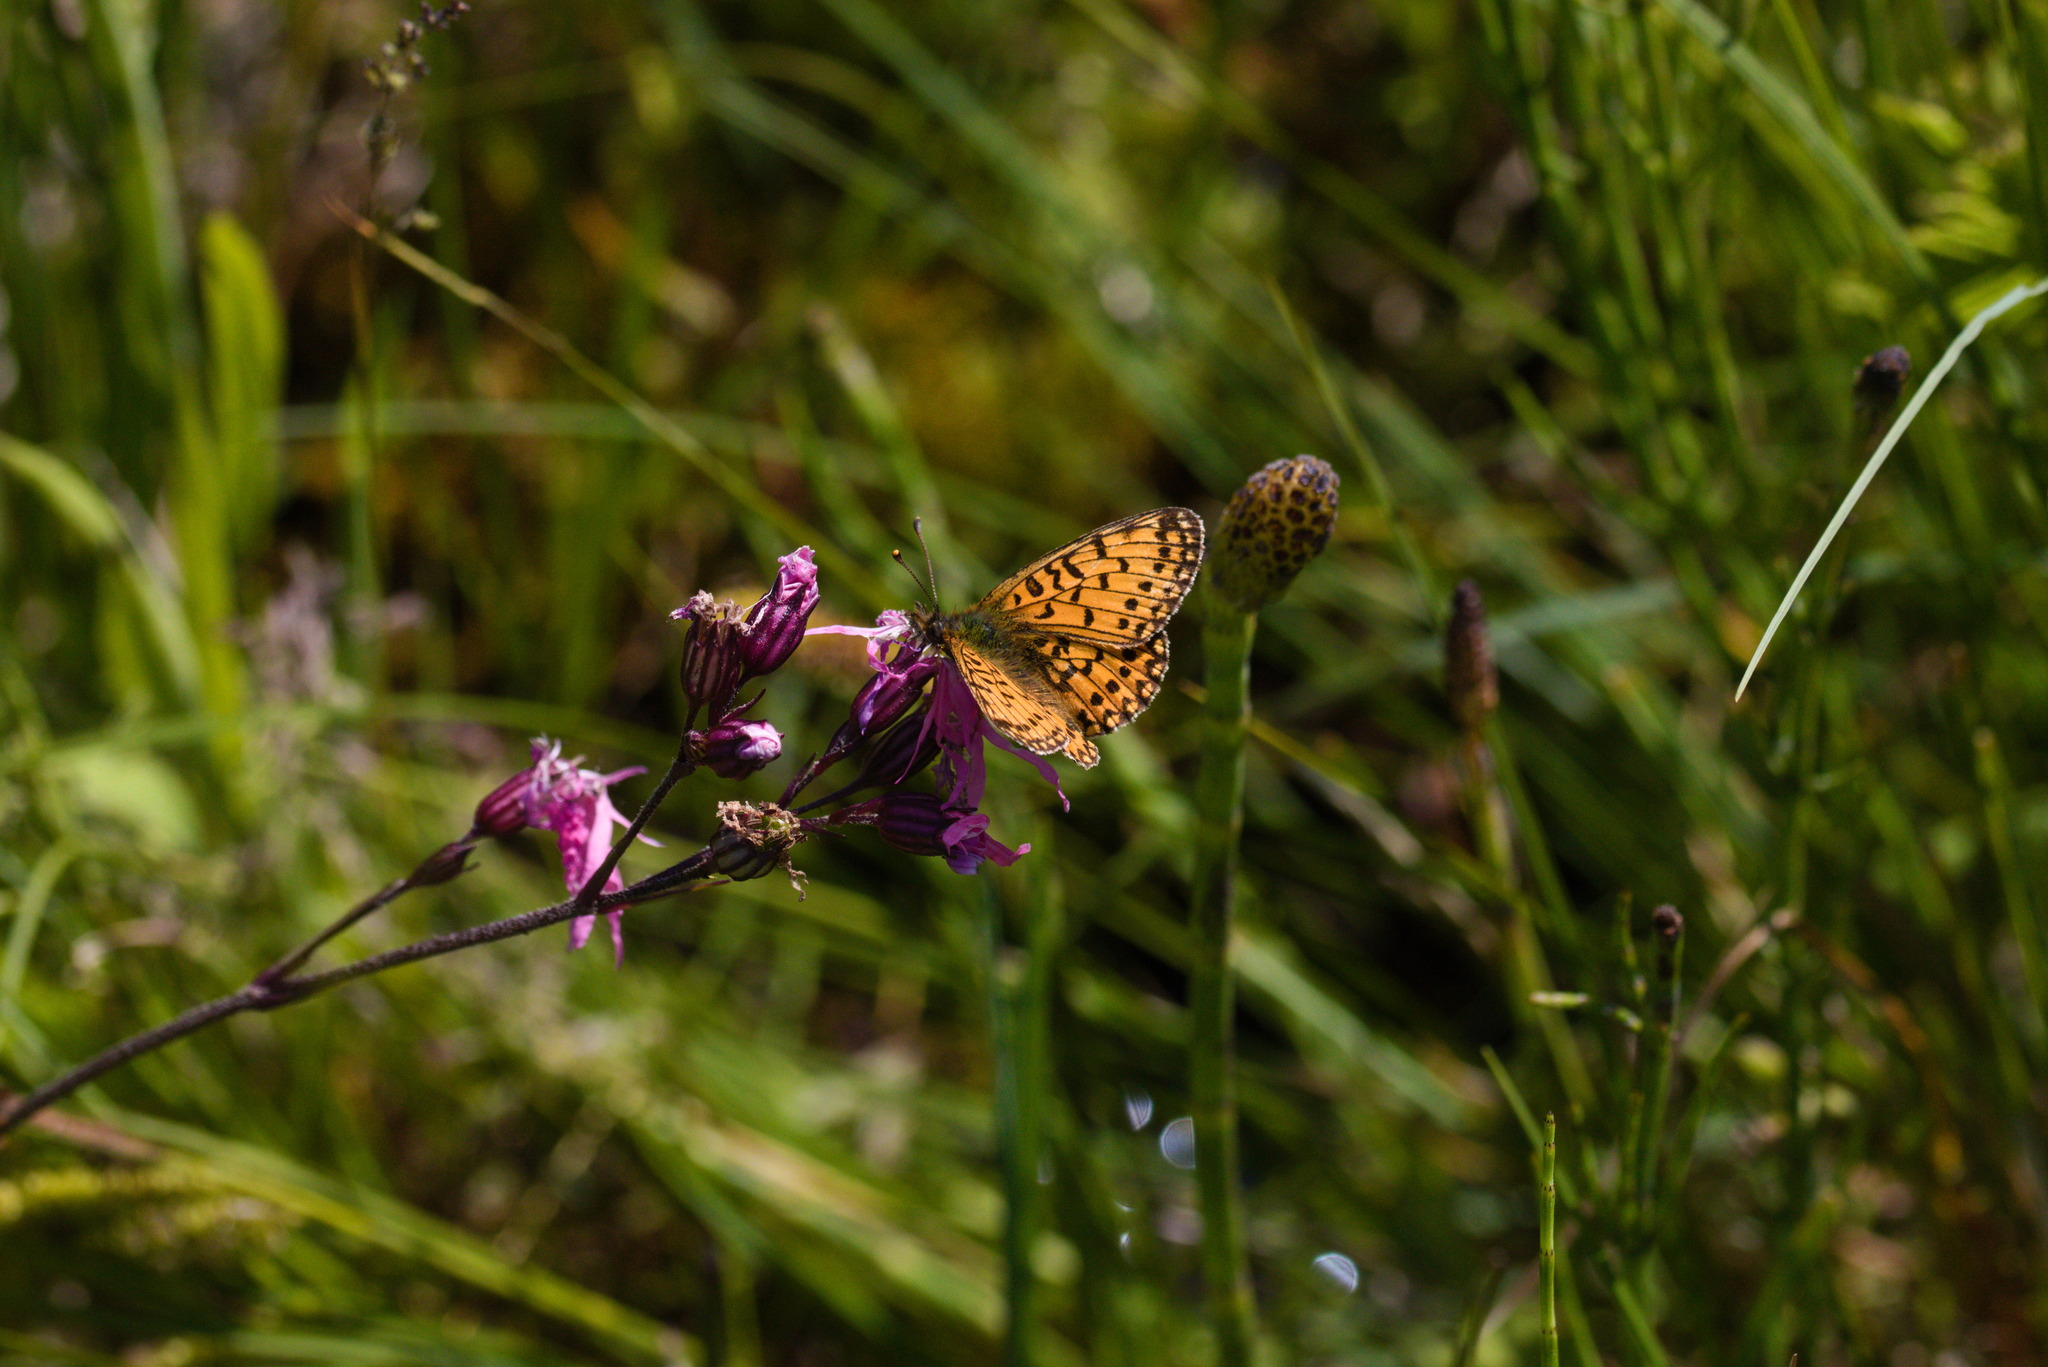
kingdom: Animalia
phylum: Arthropoda
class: Insecta
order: Lepidoptera
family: Nymphalidae
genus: Boloria
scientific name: Boloria selene
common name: Small pearl-bordered fritillary
